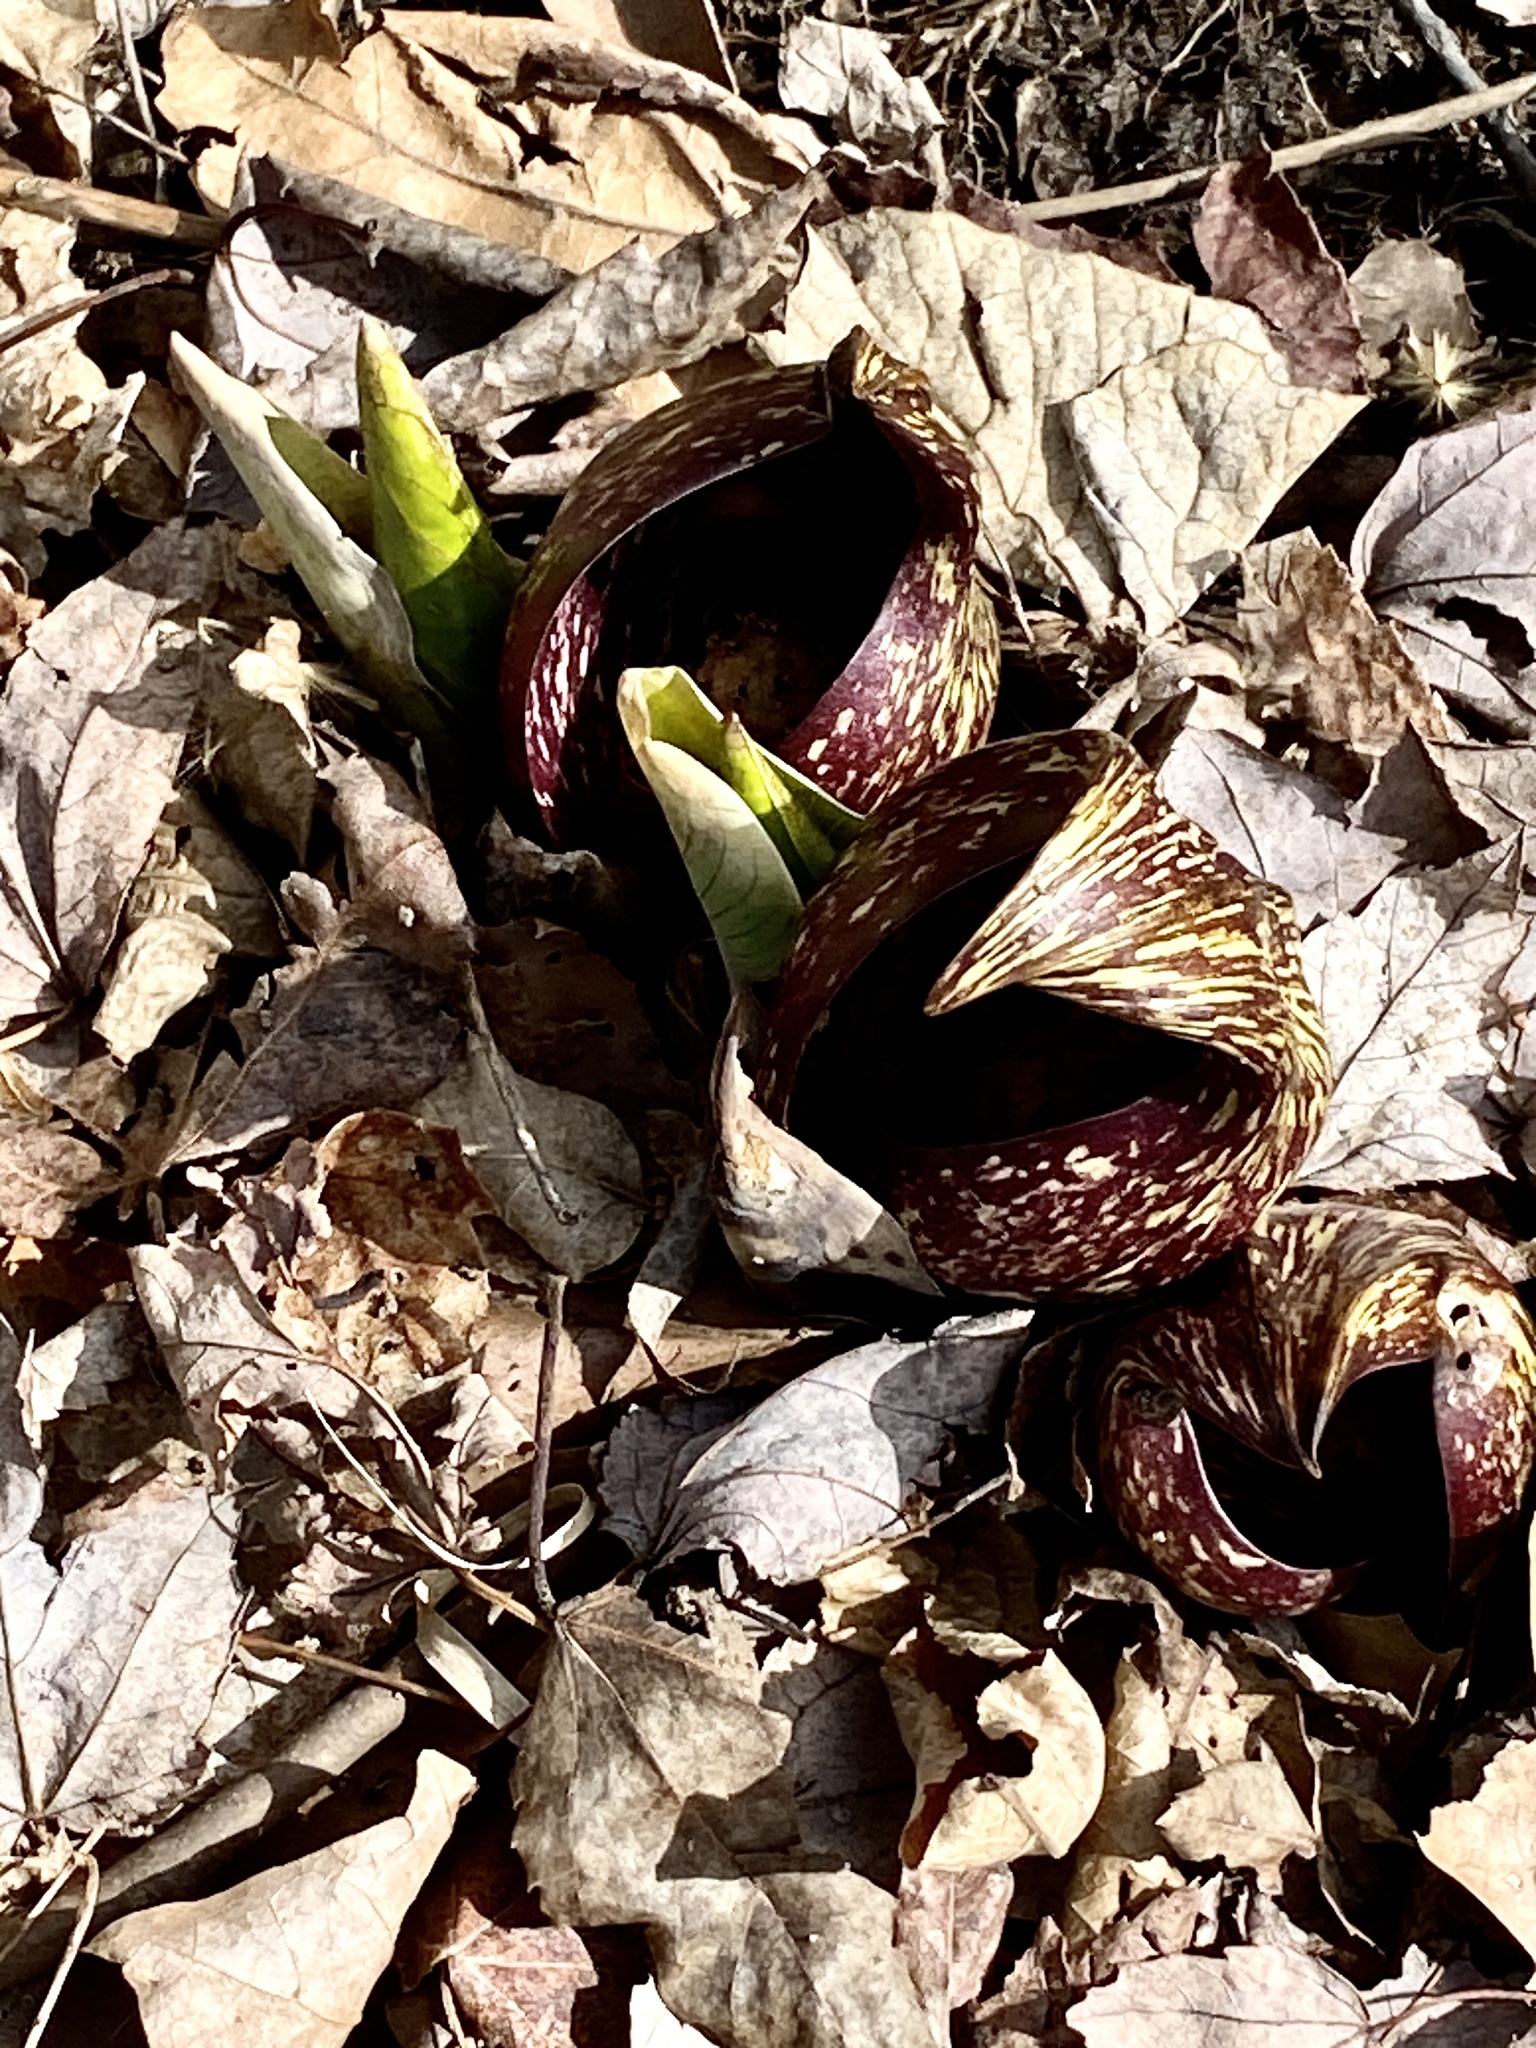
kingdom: Plantae
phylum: Tracheophyta
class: Liliopsida
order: Alismatales
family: Araceae
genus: Symplocarpus
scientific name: Symplocarpus foetidus
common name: Eastern skunk cabbage
